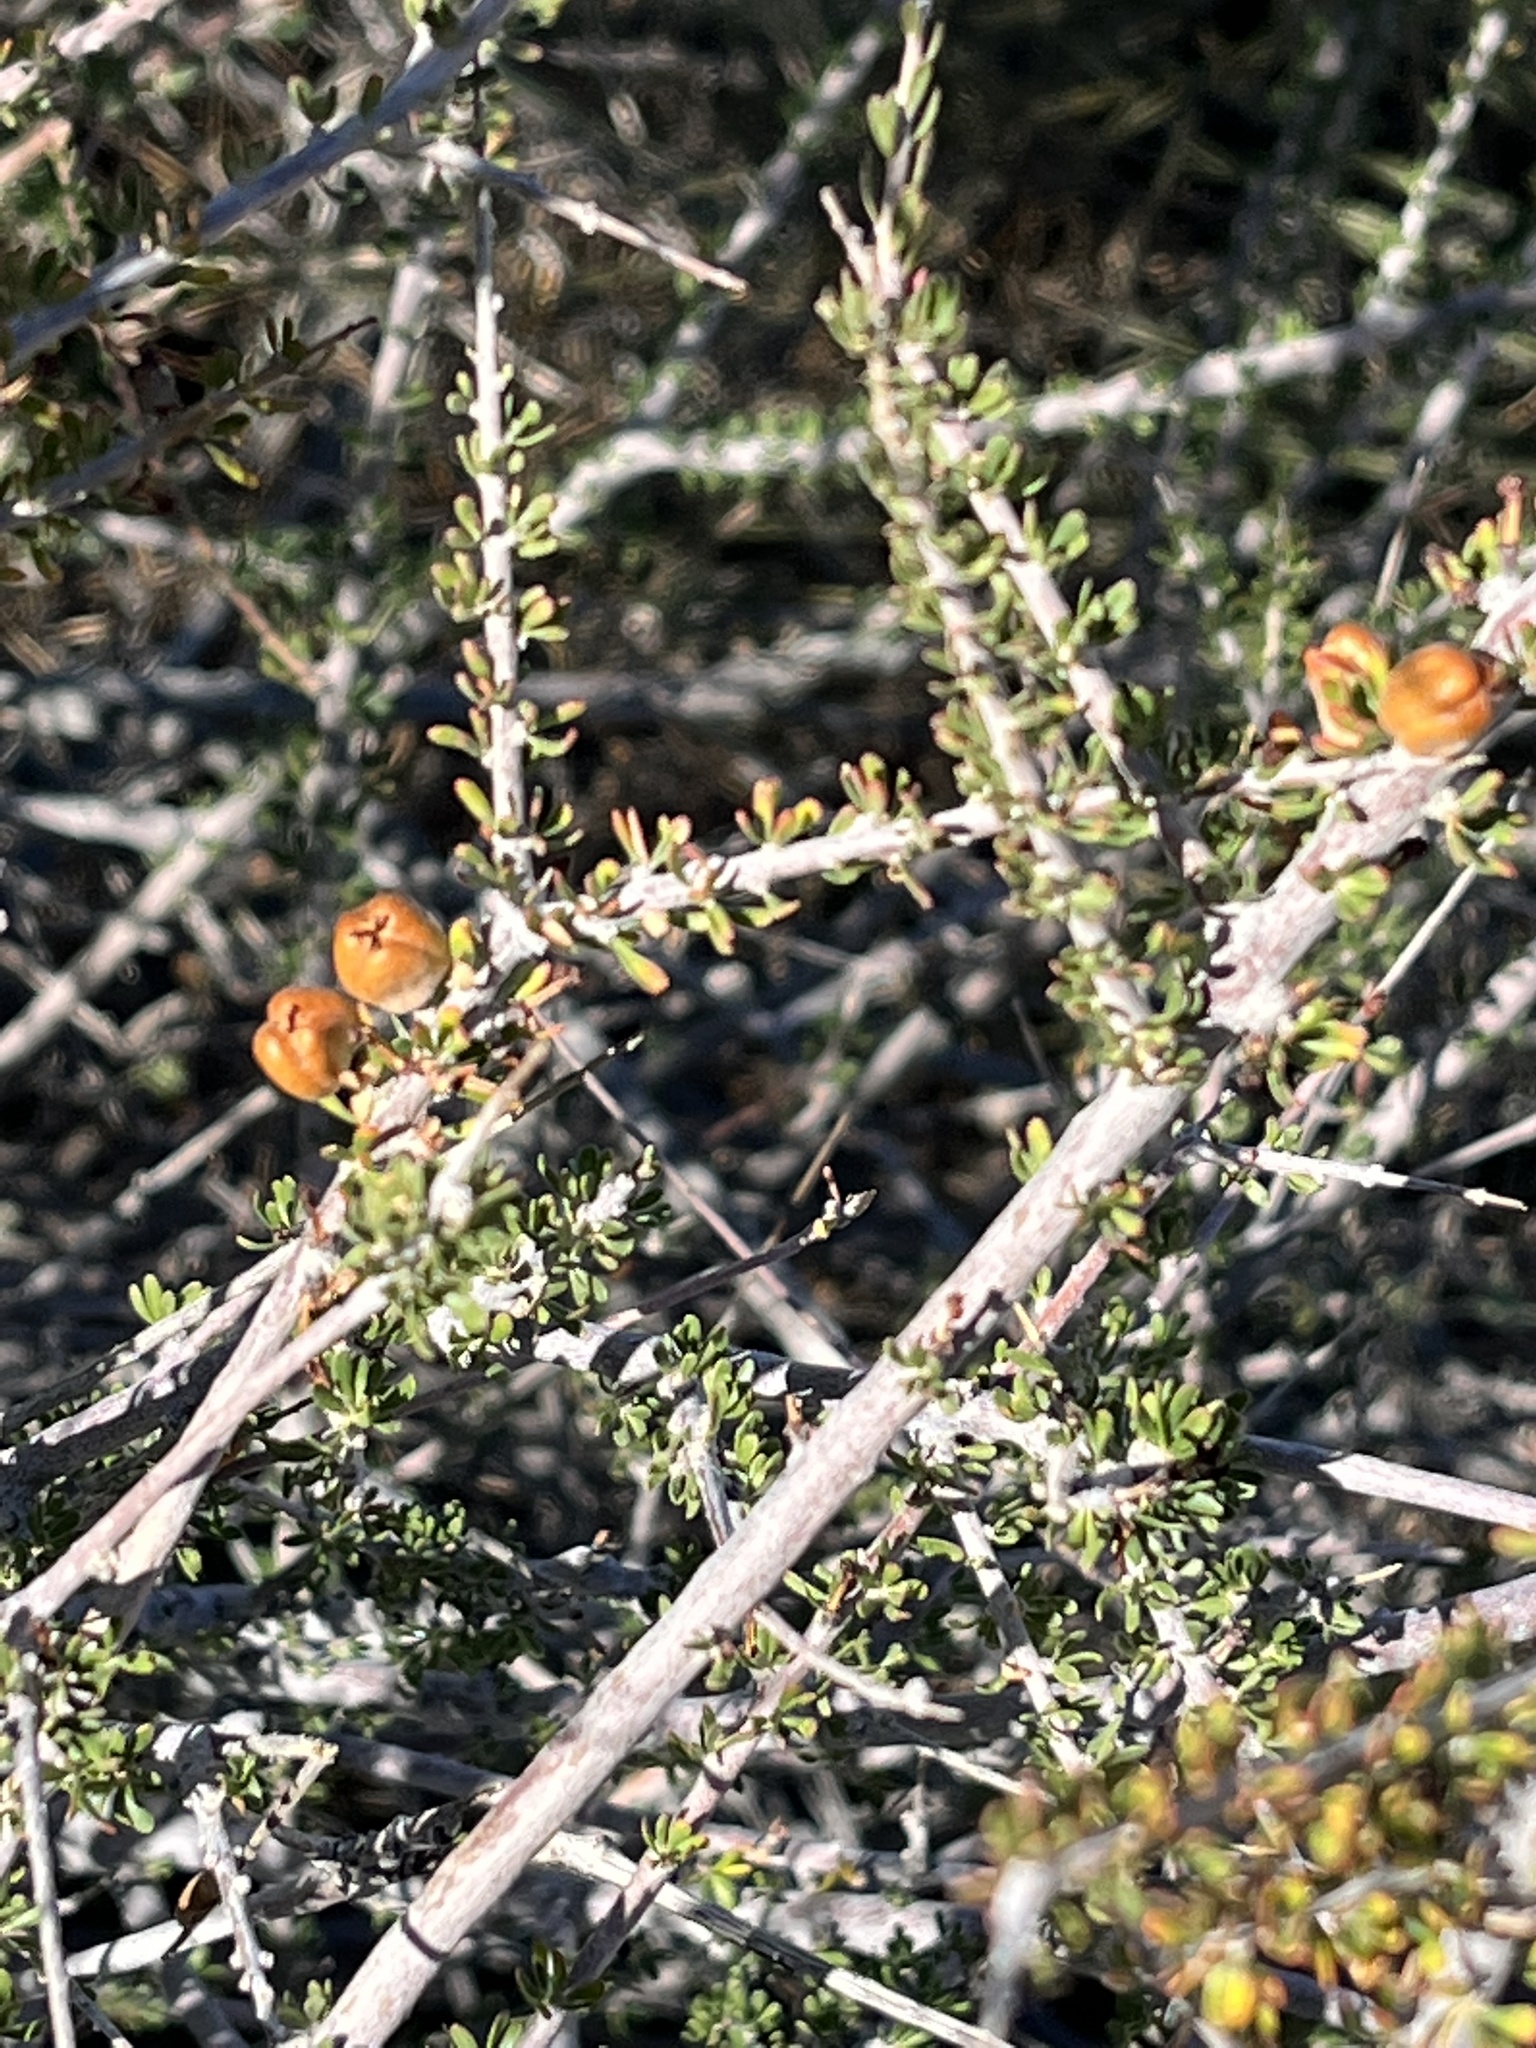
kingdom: Plantae
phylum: Tracheophyta
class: Magnoliopsida
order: Malpighiales
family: Picrodendraceae
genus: Tetracoccus
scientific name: Tetracoccus hallii
